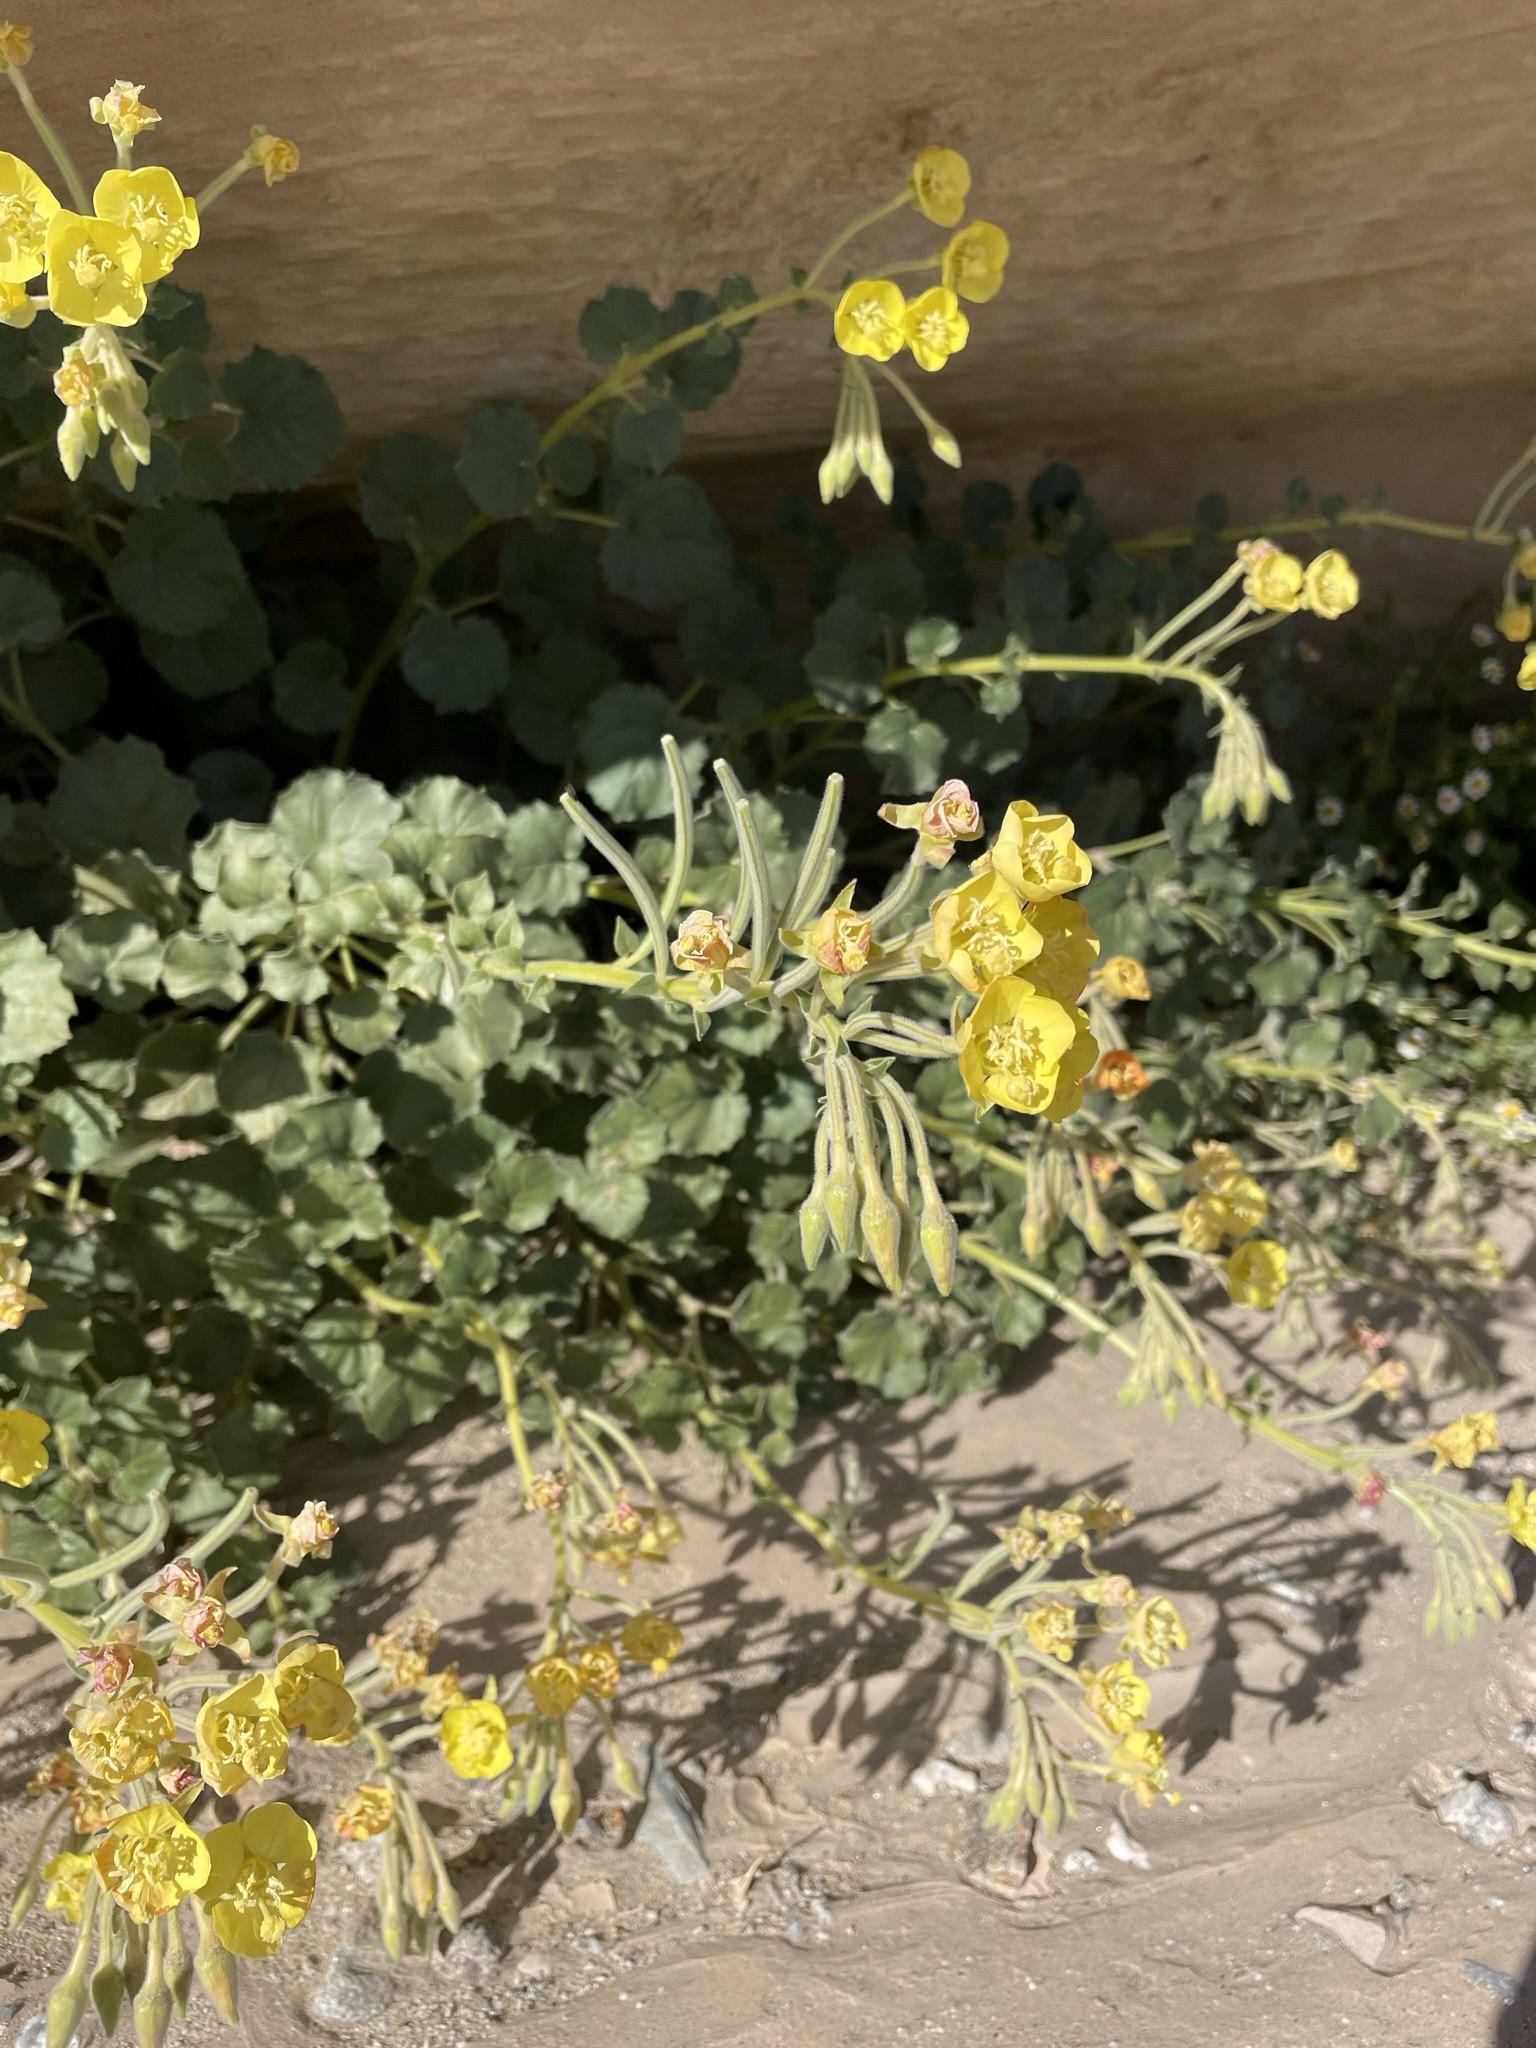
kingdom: Plantae
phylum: Tracheophyta
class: Magnoliopsida
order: Myrtales
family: Onagraceae
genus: Chylismia
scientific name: Chylismia cardiophylla
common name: Heartleaf suncup
